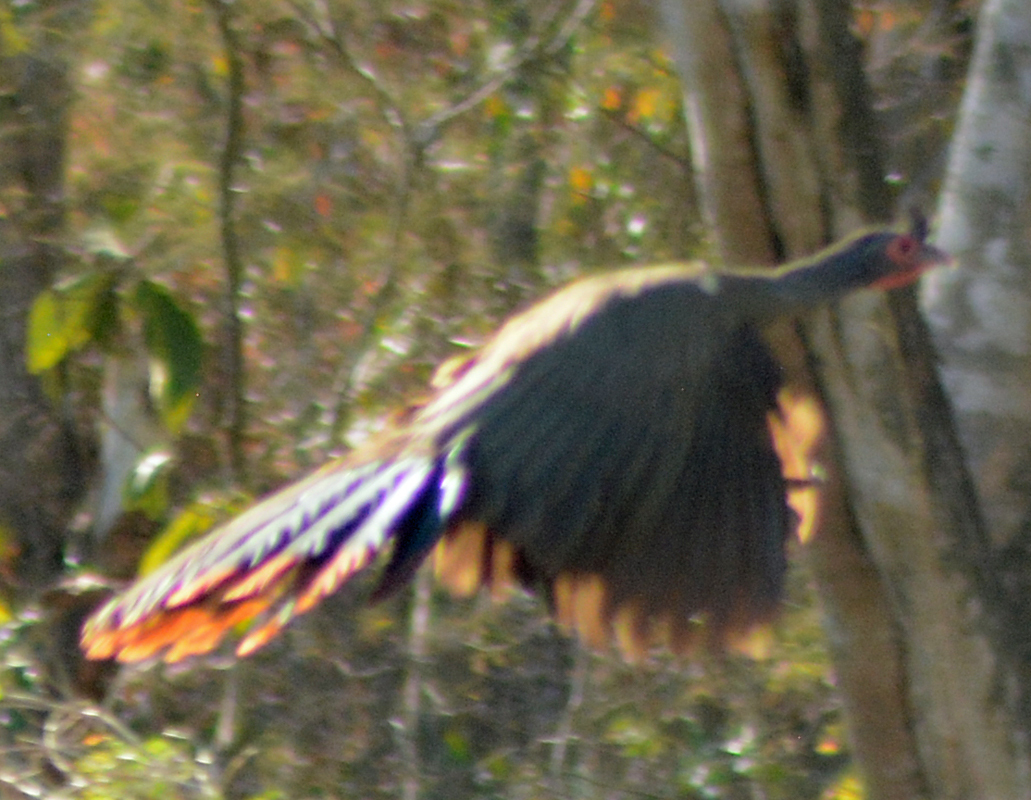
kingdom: Animalia
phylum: Chordata
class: Aves
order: Galliformes
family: Cracidae
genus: Ortalis
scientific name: Ortalis wagleri
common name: Rufous-bellied chachalaca
